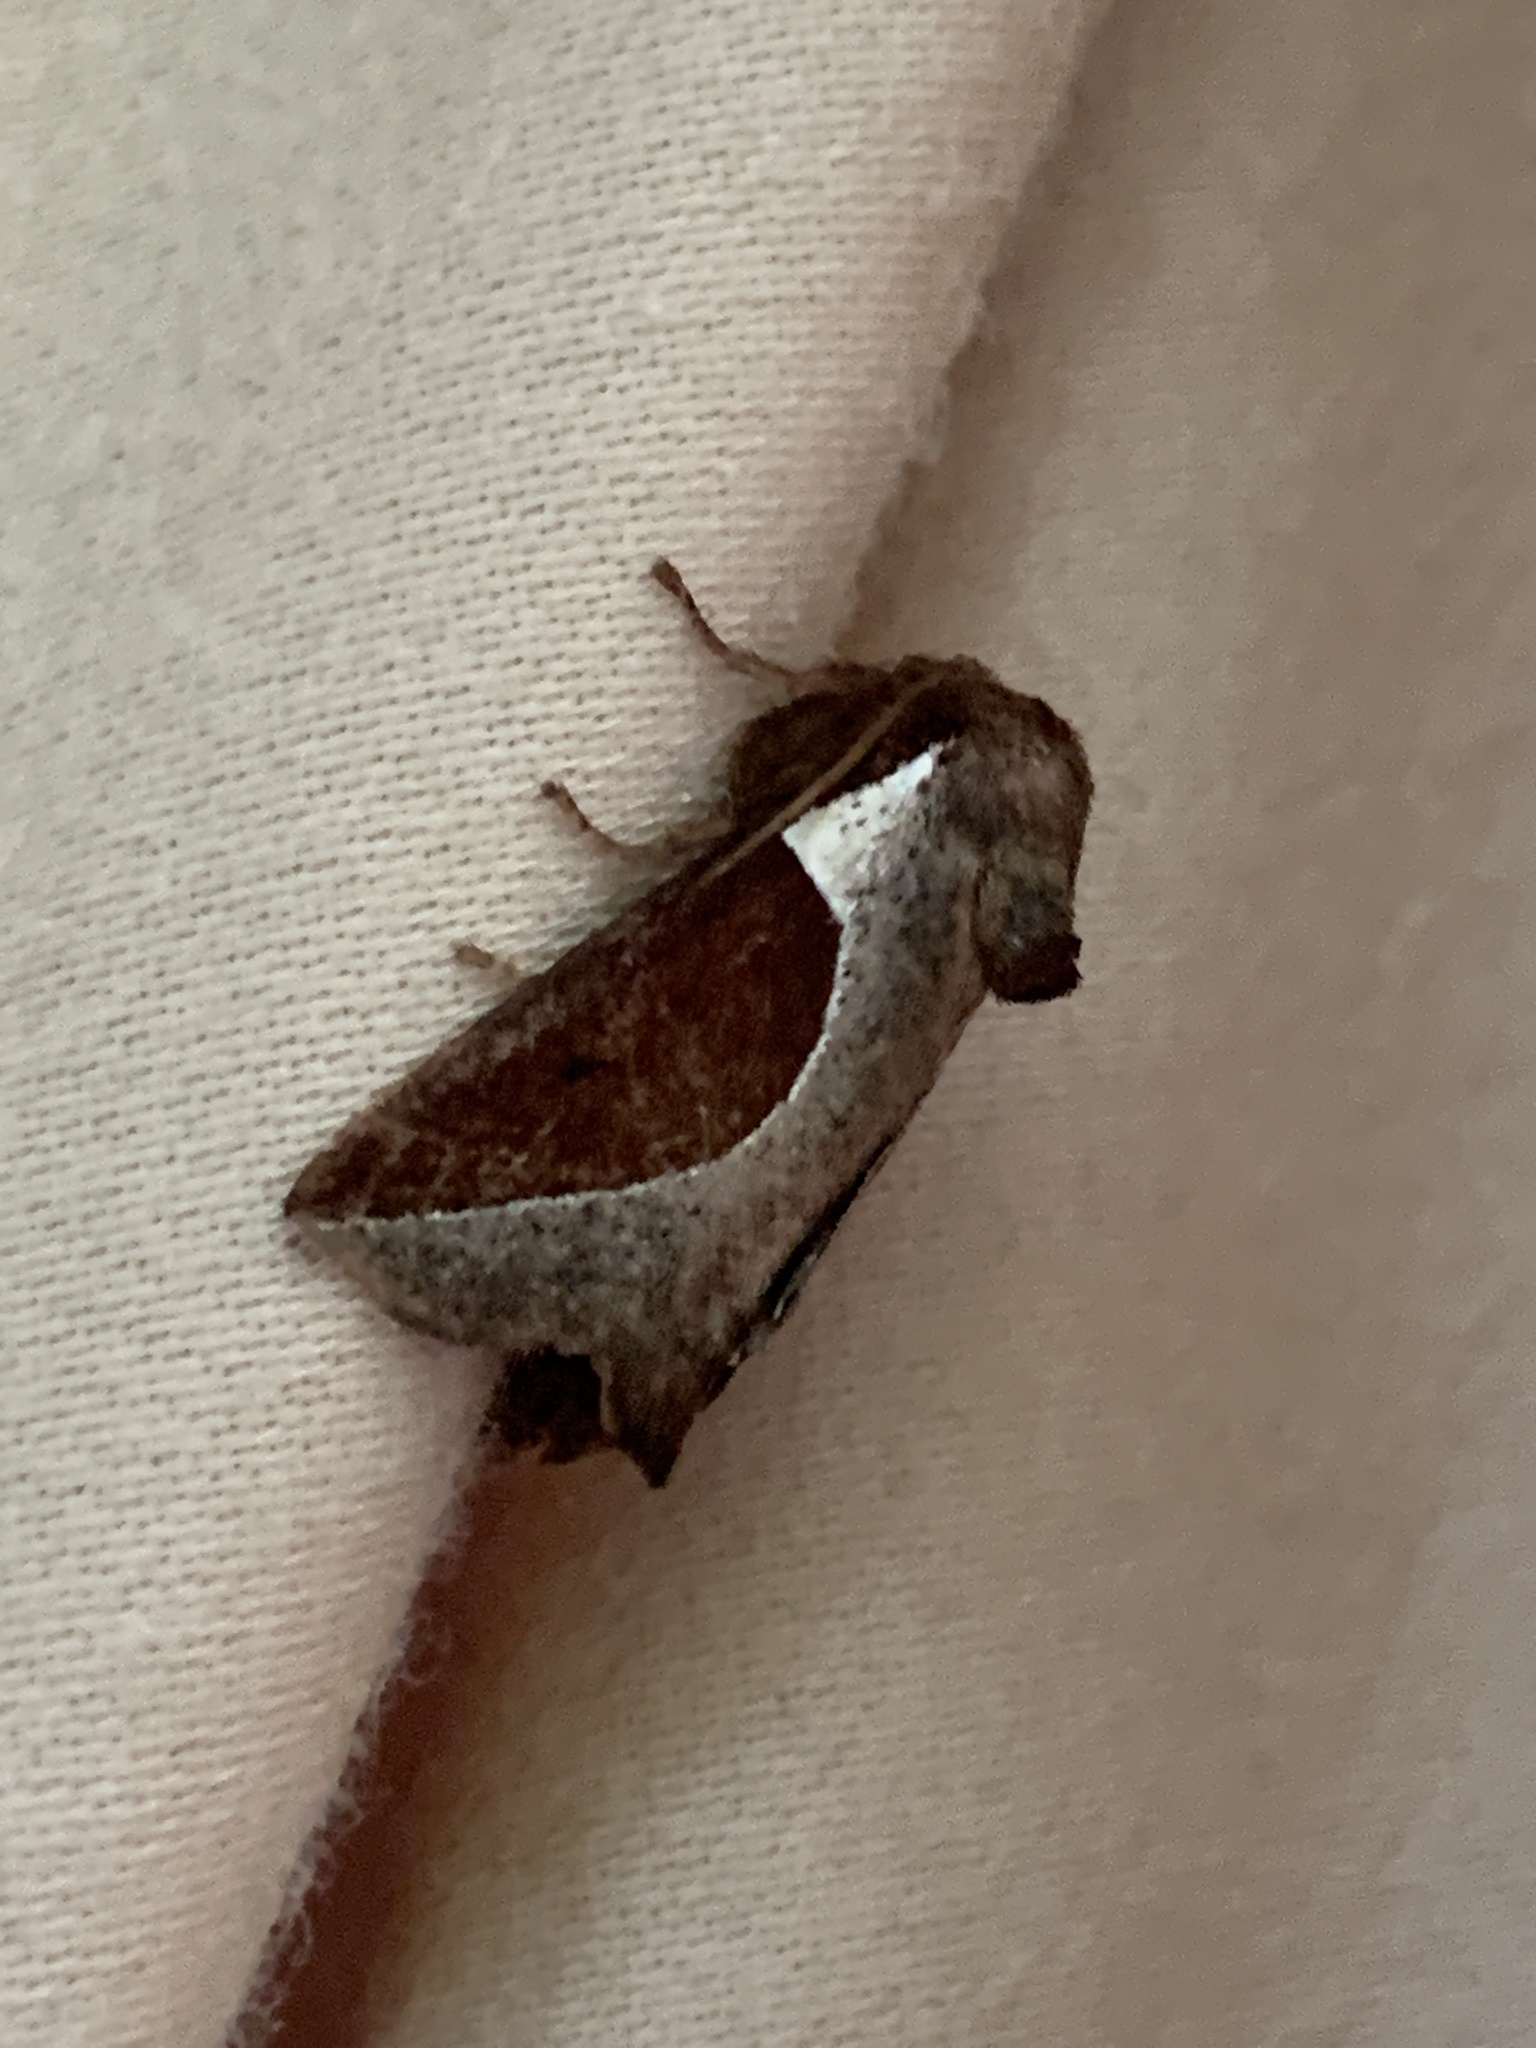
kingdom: Animalia
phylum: Arthropoda
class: Insecta
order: Lepidoptera
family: Limacodidae
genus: Prolimacodes
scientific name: Prolimacodes badia
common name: Skiff moth
